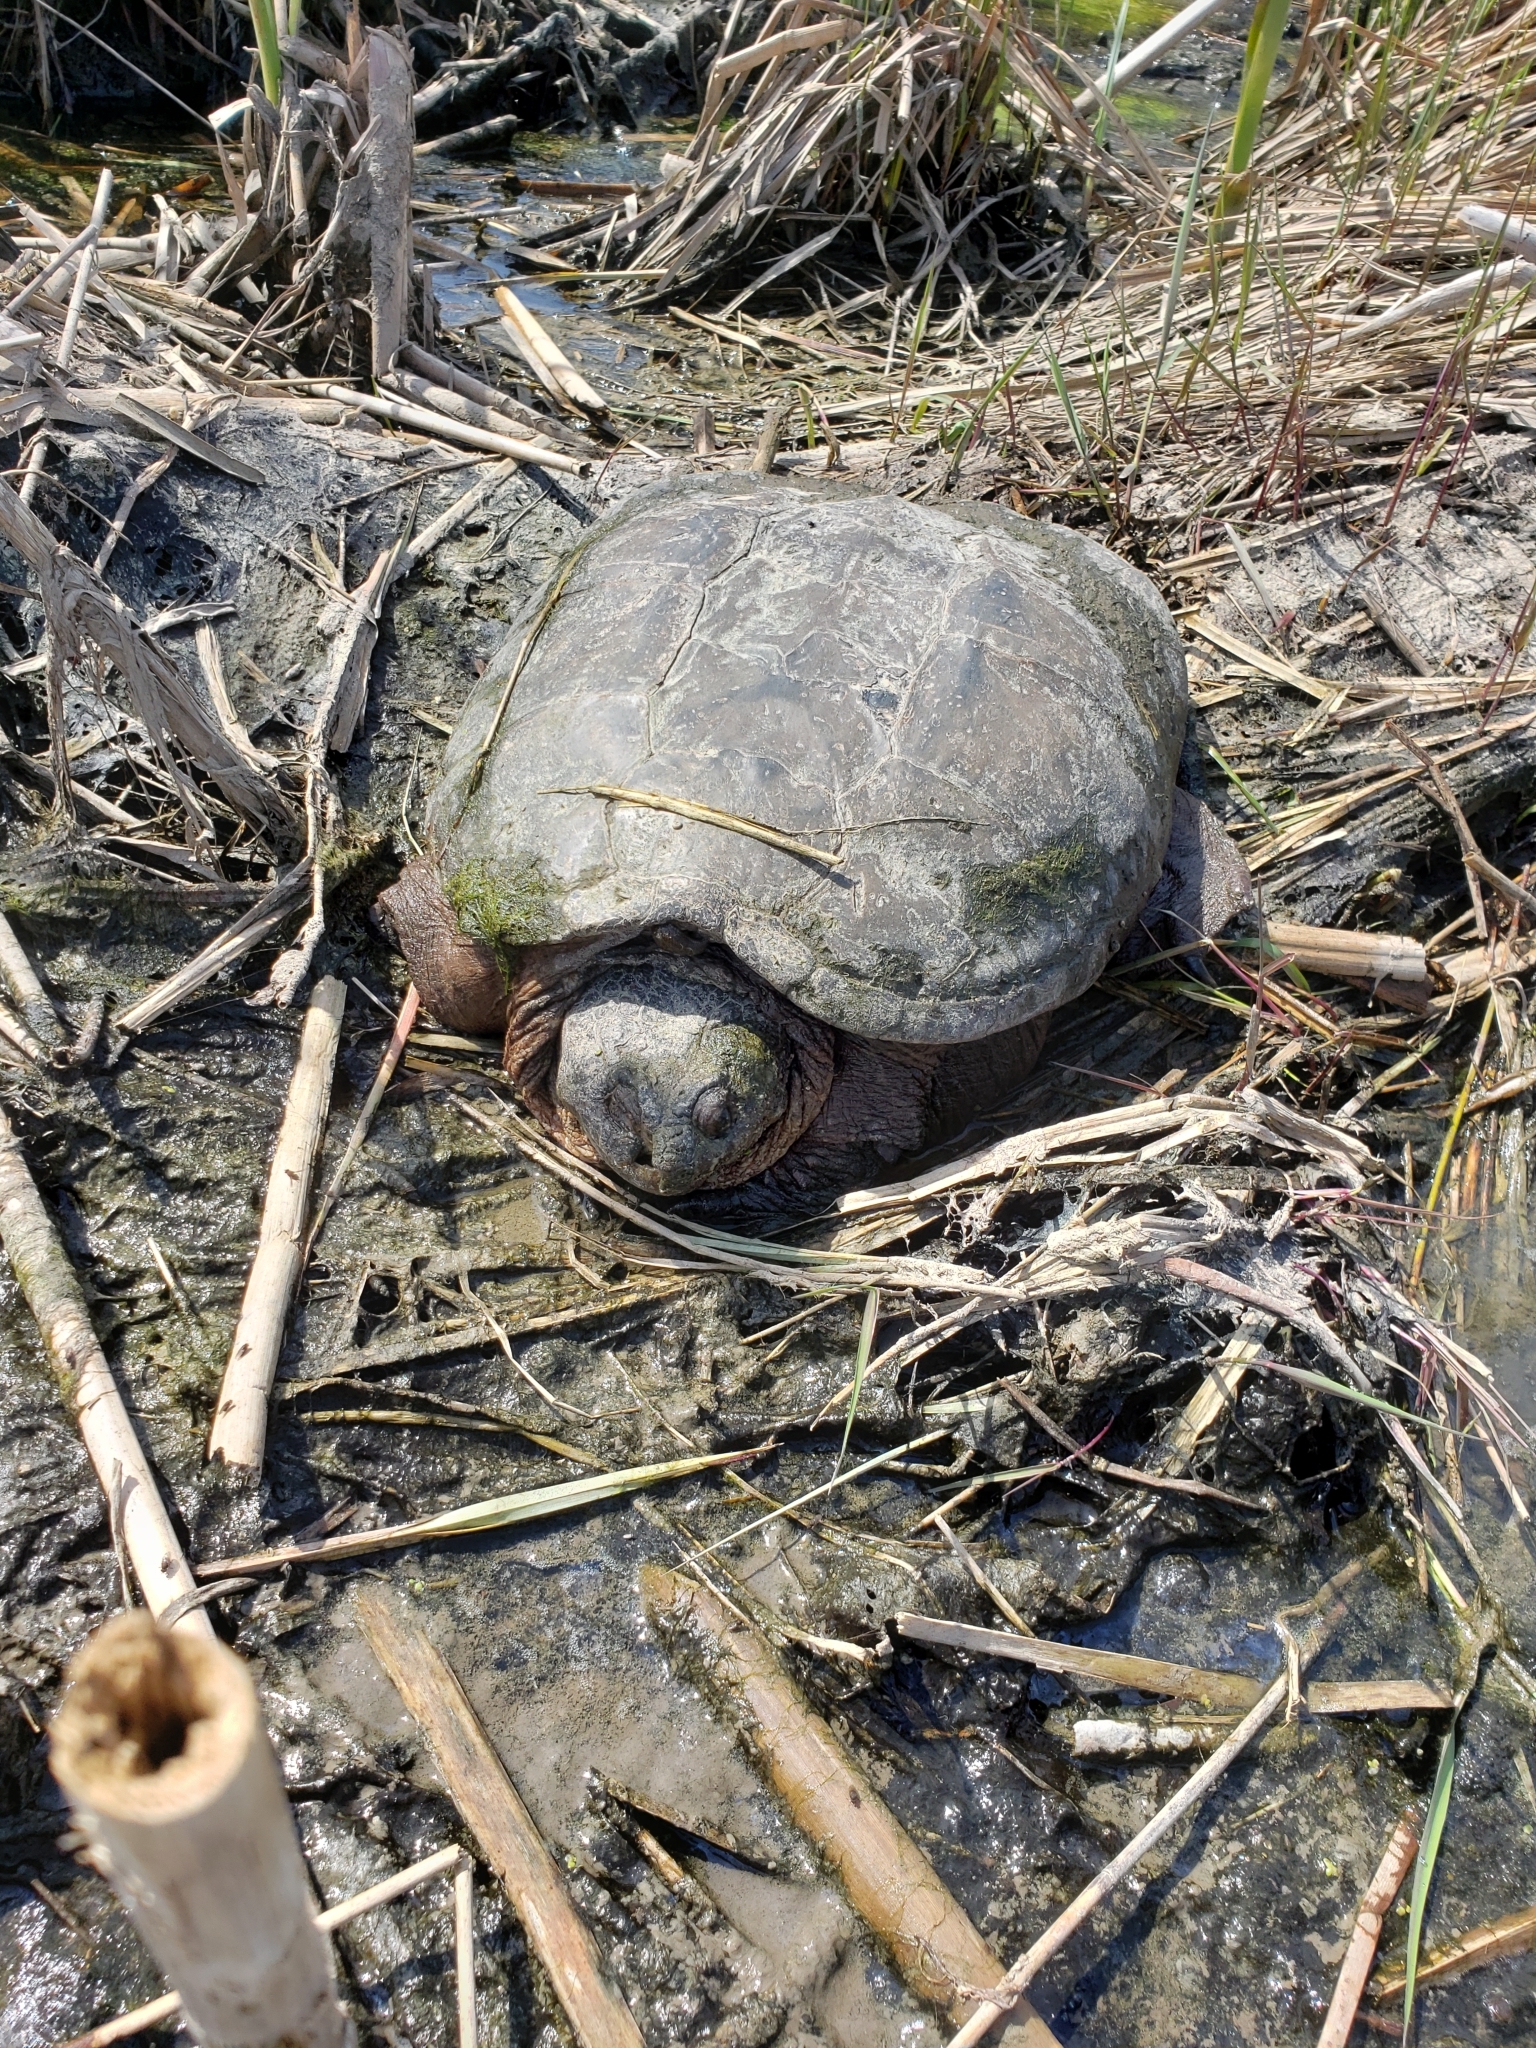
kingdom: Animalia
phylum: Chordata
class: Testudines
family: Chelydridae
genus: Chelydra
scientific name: Chelydra serpentina
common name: Common snapping turtle
